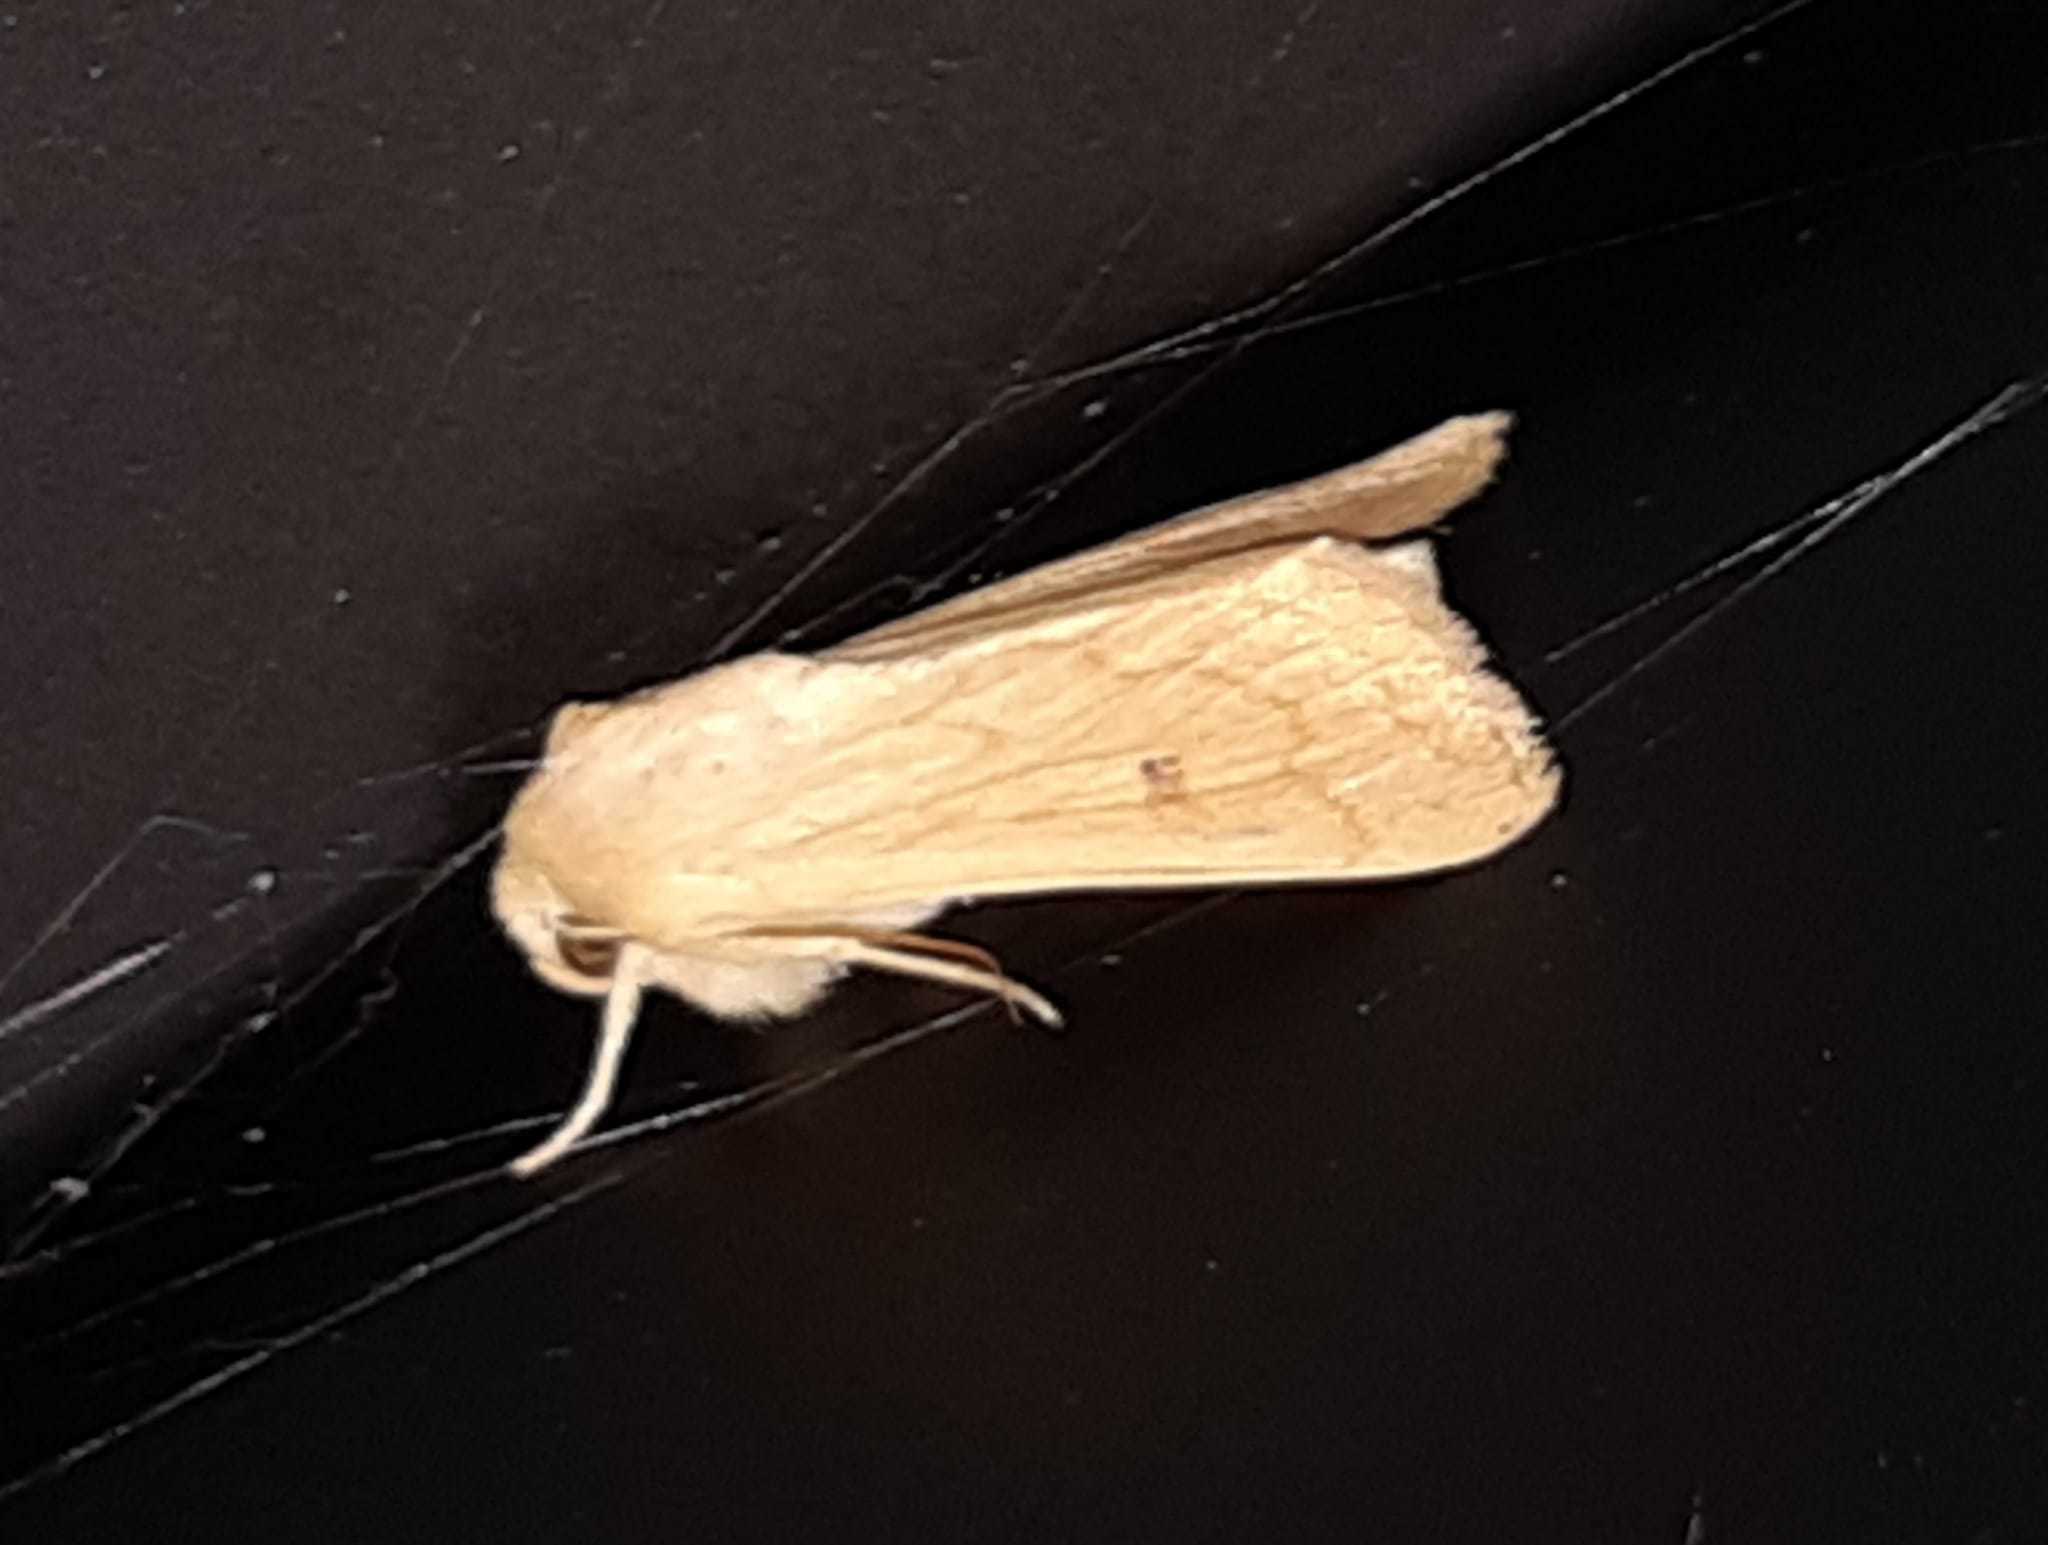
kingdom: Animalia
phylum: Arthropoda
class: Insecta
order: Lepidoptera
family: Noctuidae
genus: Mythimna
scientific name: Mythimna vitellina
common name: Delicate
